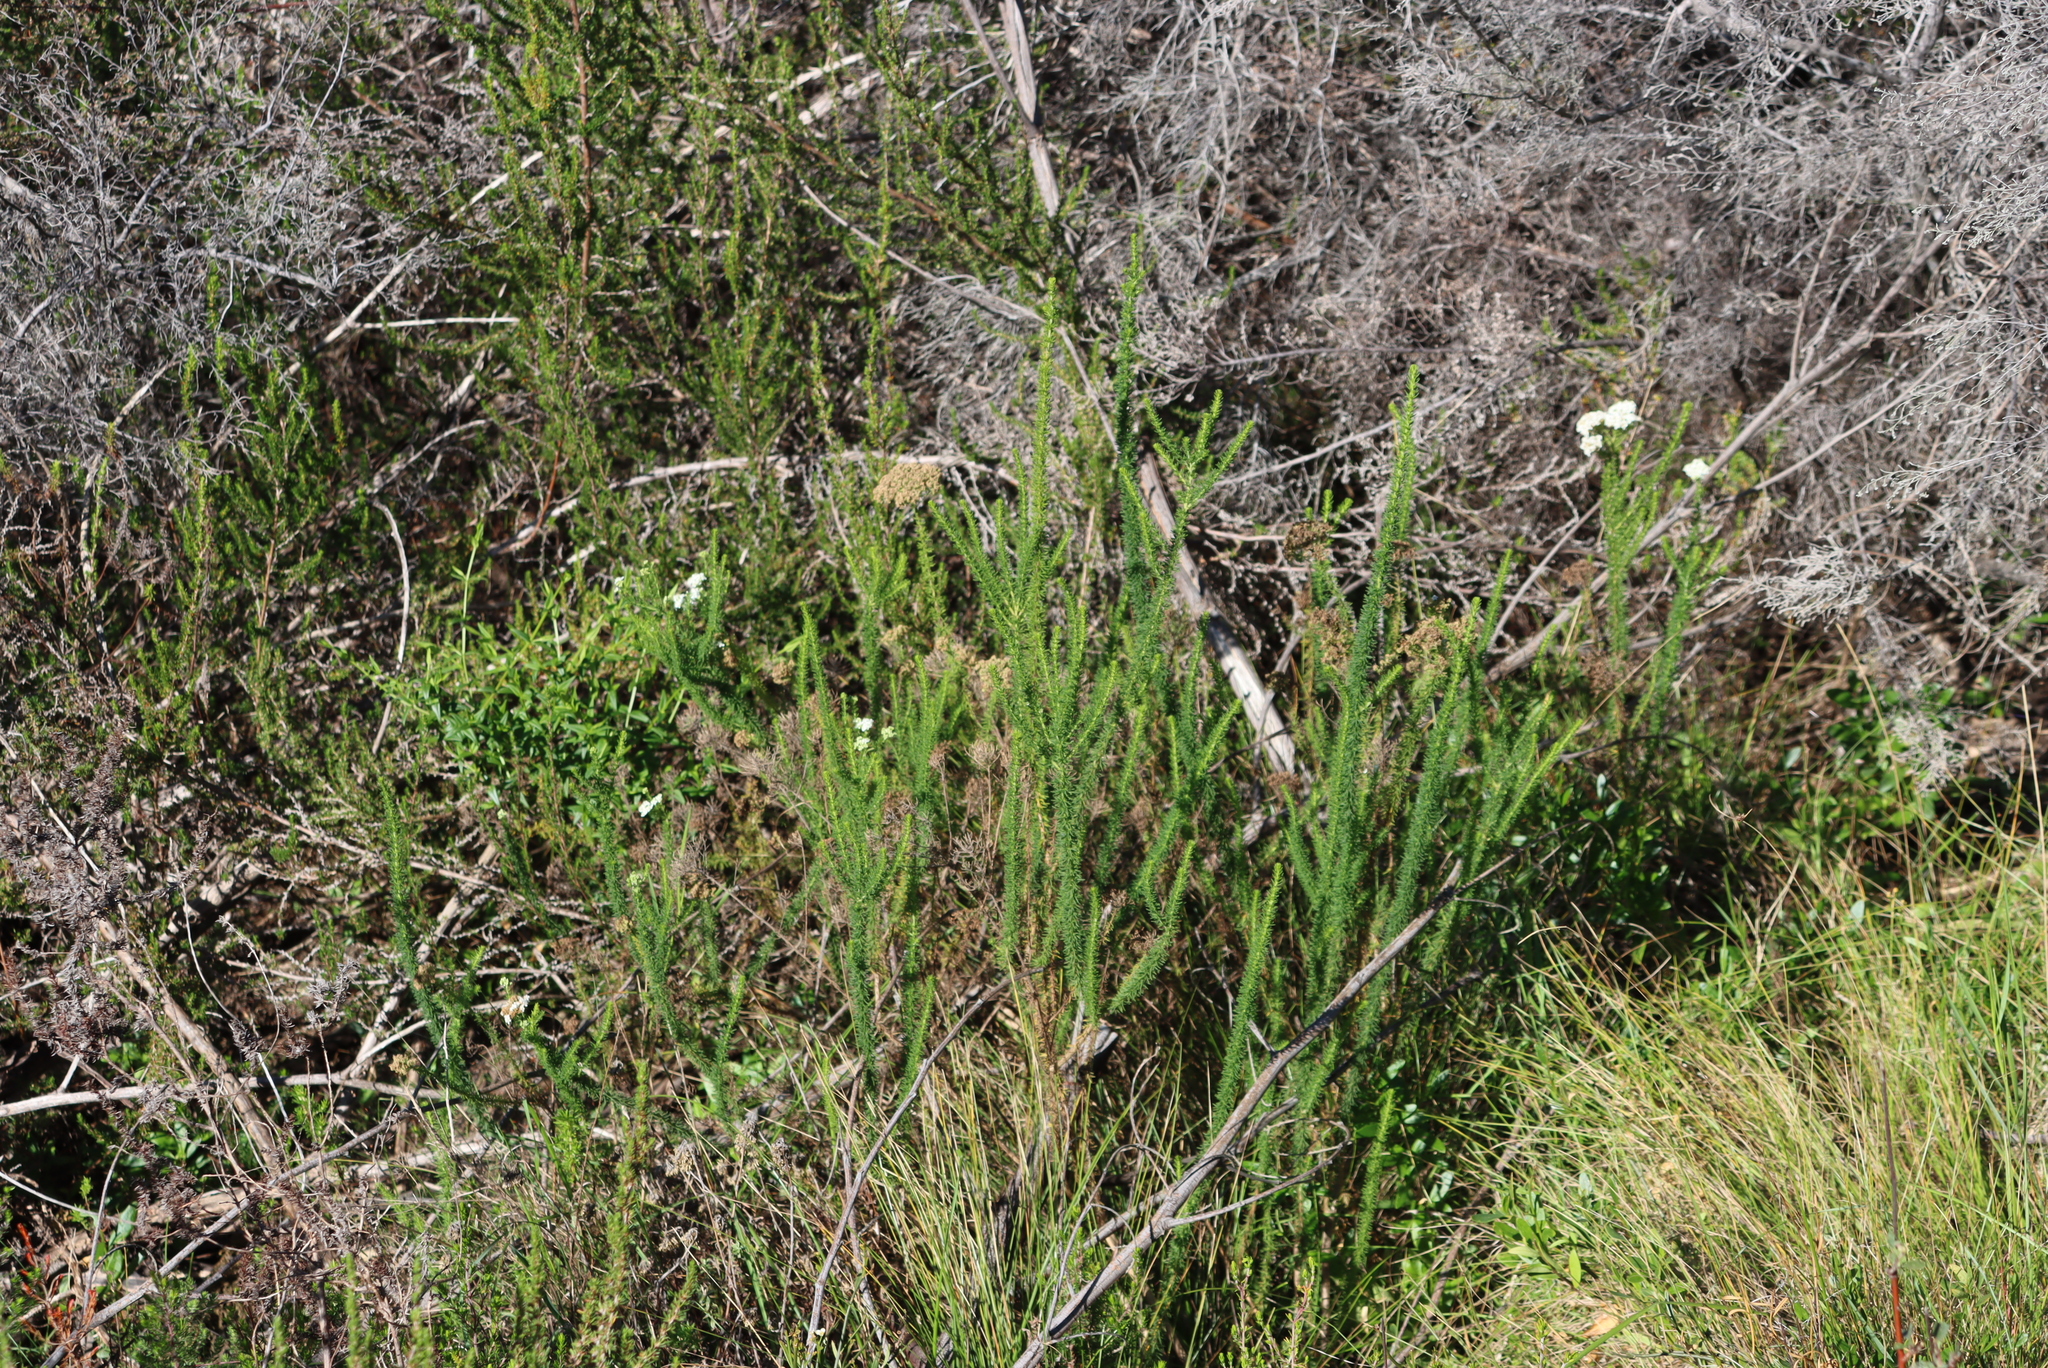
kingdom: Plantae
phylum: Tracheophyta
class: Magnoliopsida
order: Lamiales
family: Scrophulariaceae
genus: Selago
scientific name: Selago corymbosa
